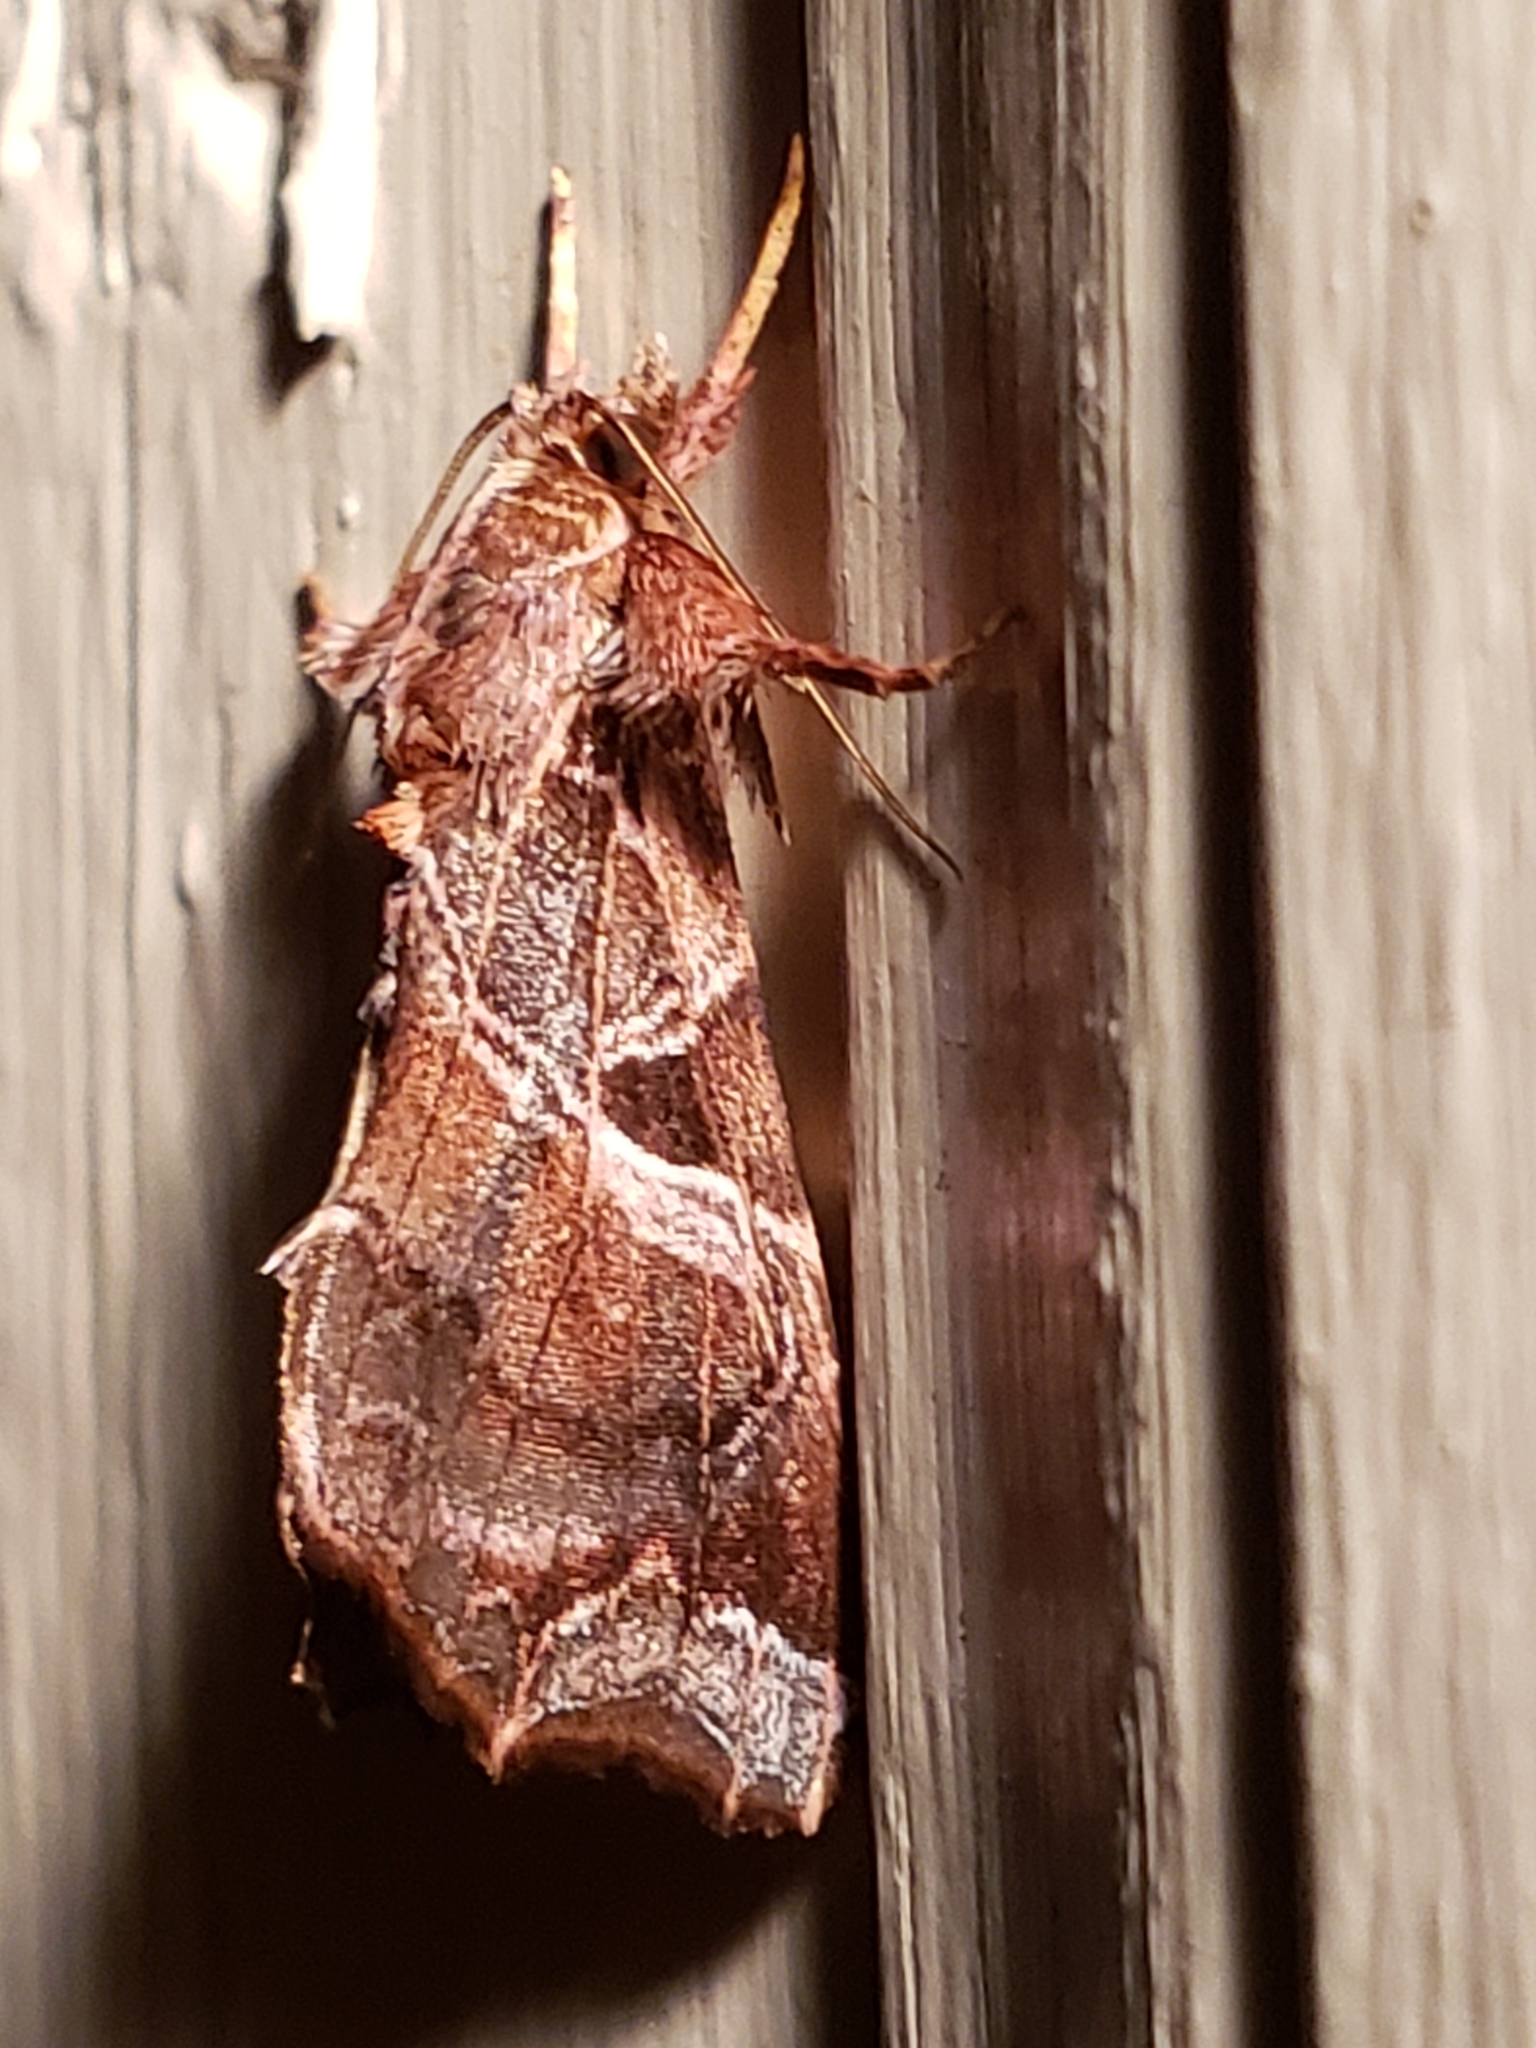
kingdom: Animalia
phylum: Arthropoda
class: Insecta
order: Lepidoptera
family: Noctuidae
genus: Callopistria
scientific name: Callopistria floridensis
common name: Florida fern moth
